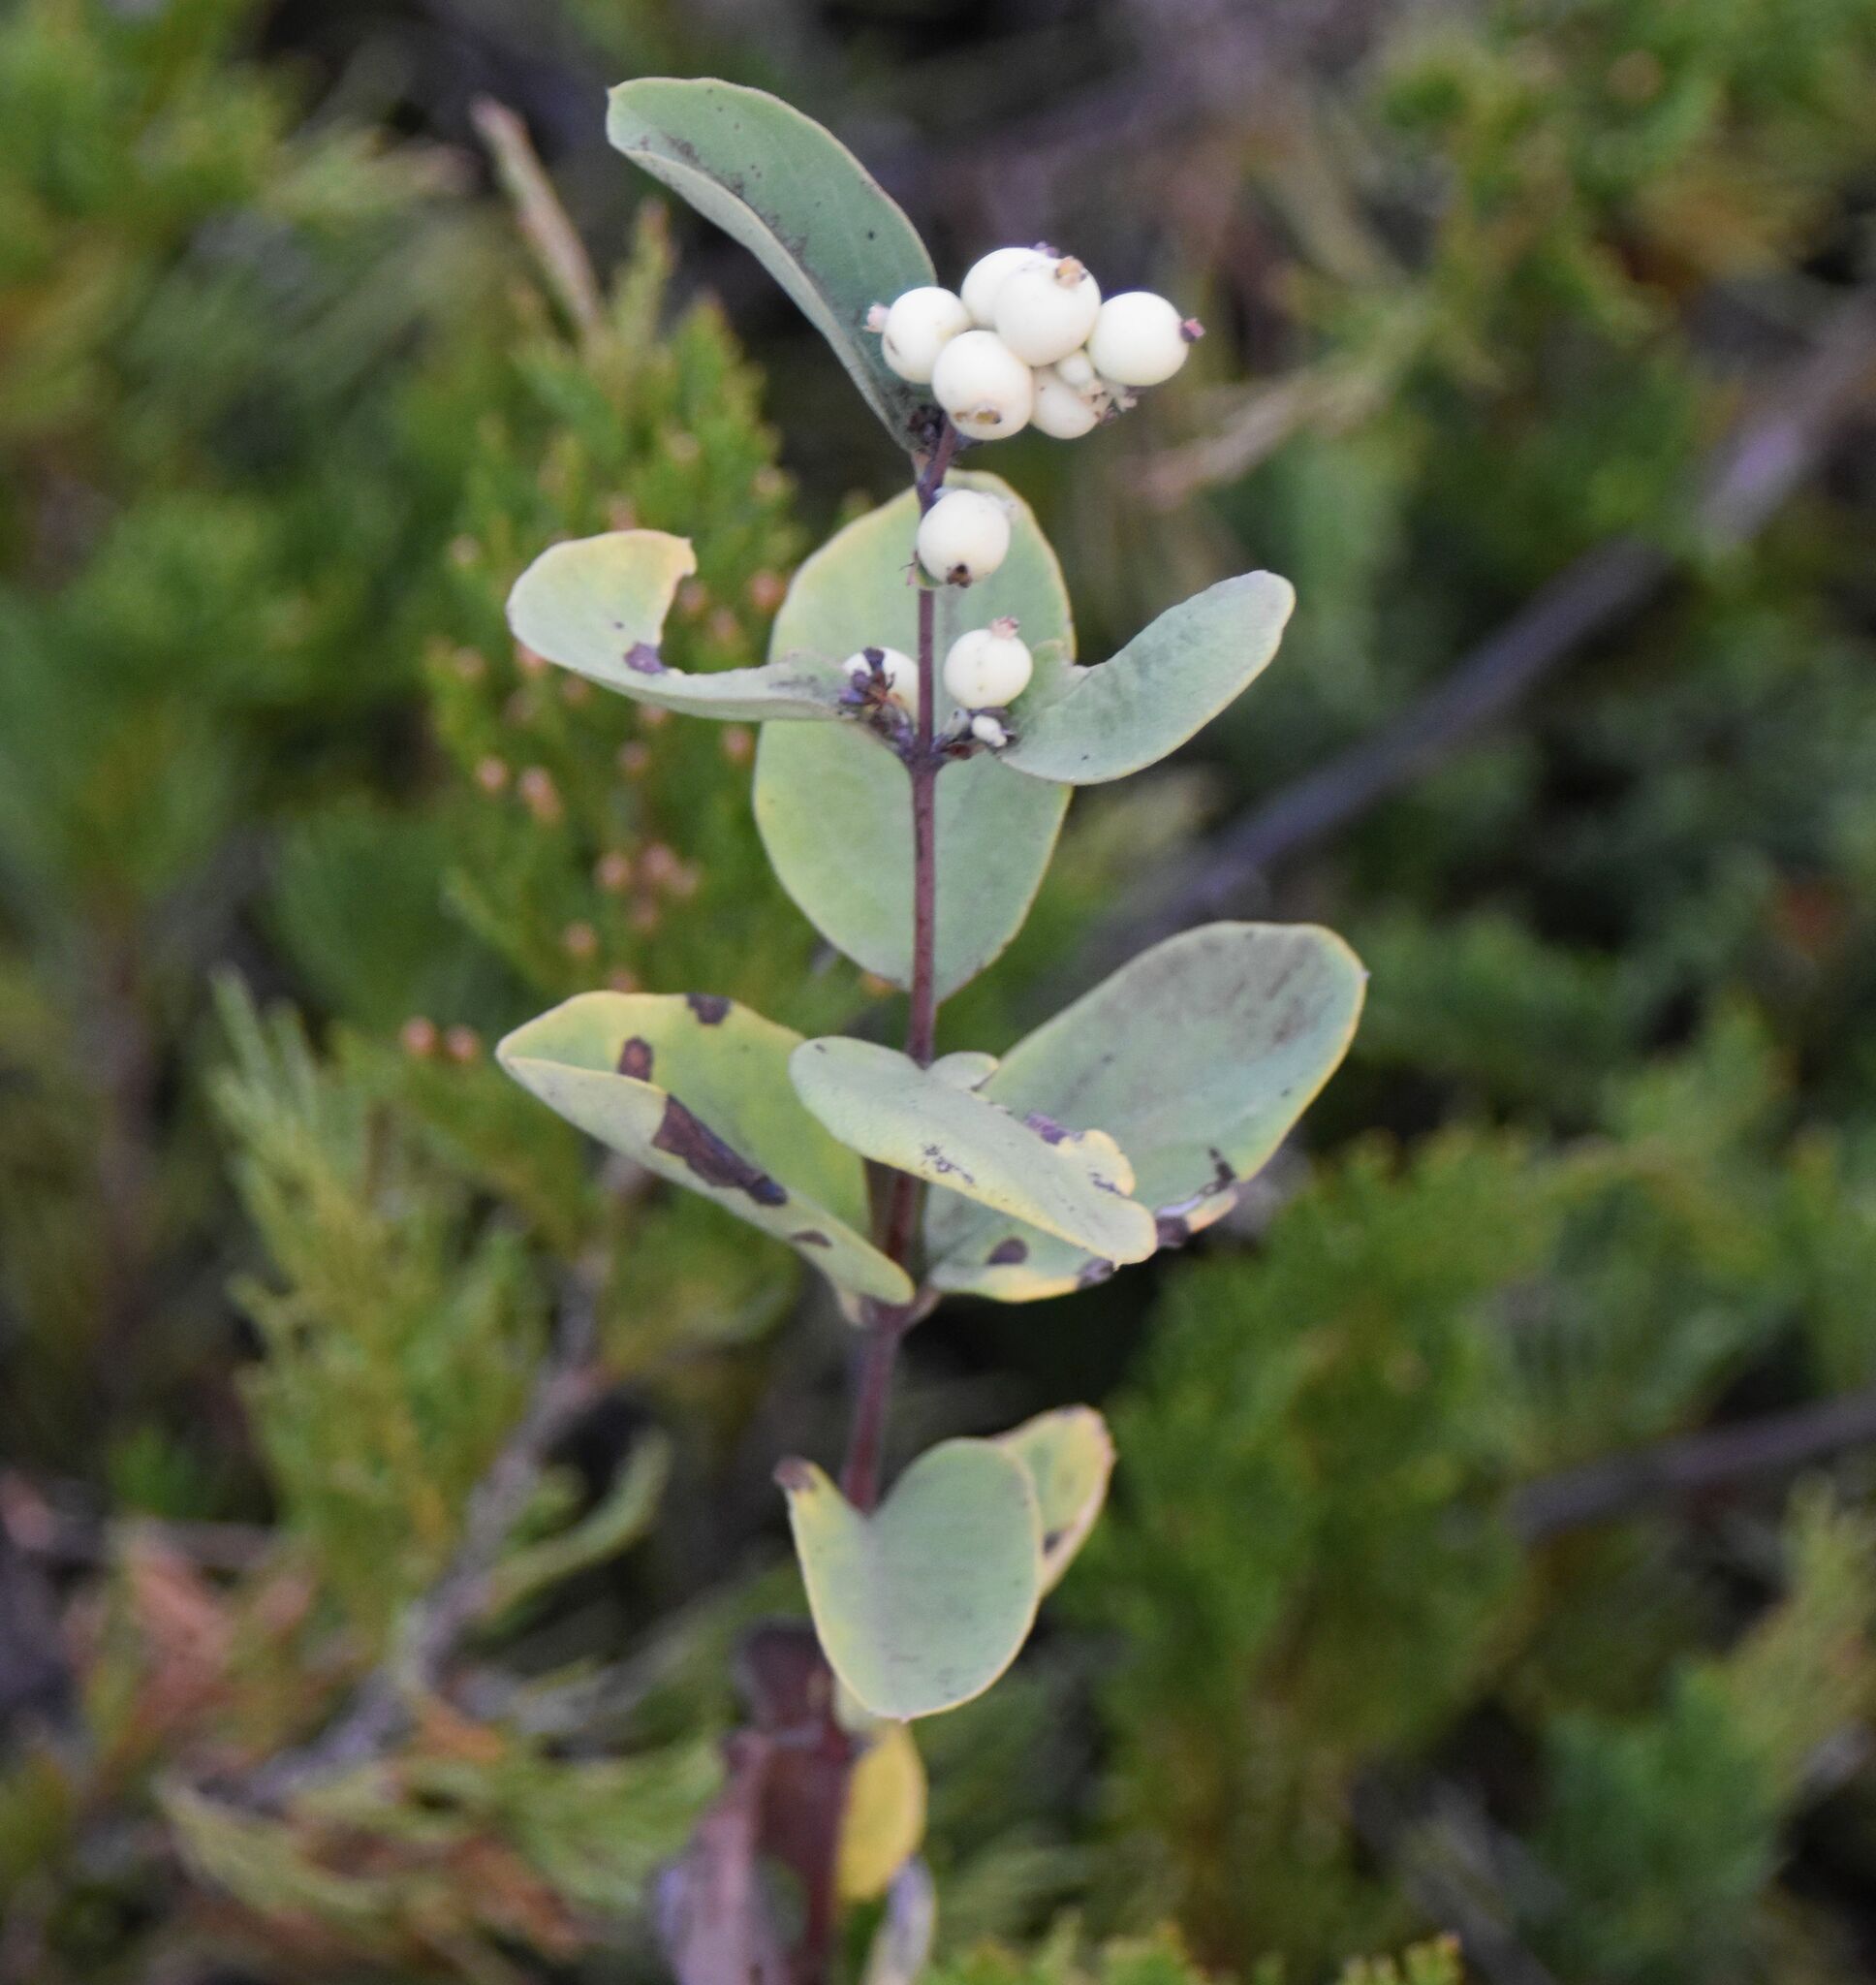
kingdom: Plantae
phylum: Tracheophyta
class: Magnoliopsida
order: Dipsacales
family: Caprifoliaceae
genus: Symphoricarpos
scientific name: Symphoricarpos occidentalis
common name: Wolfberry
